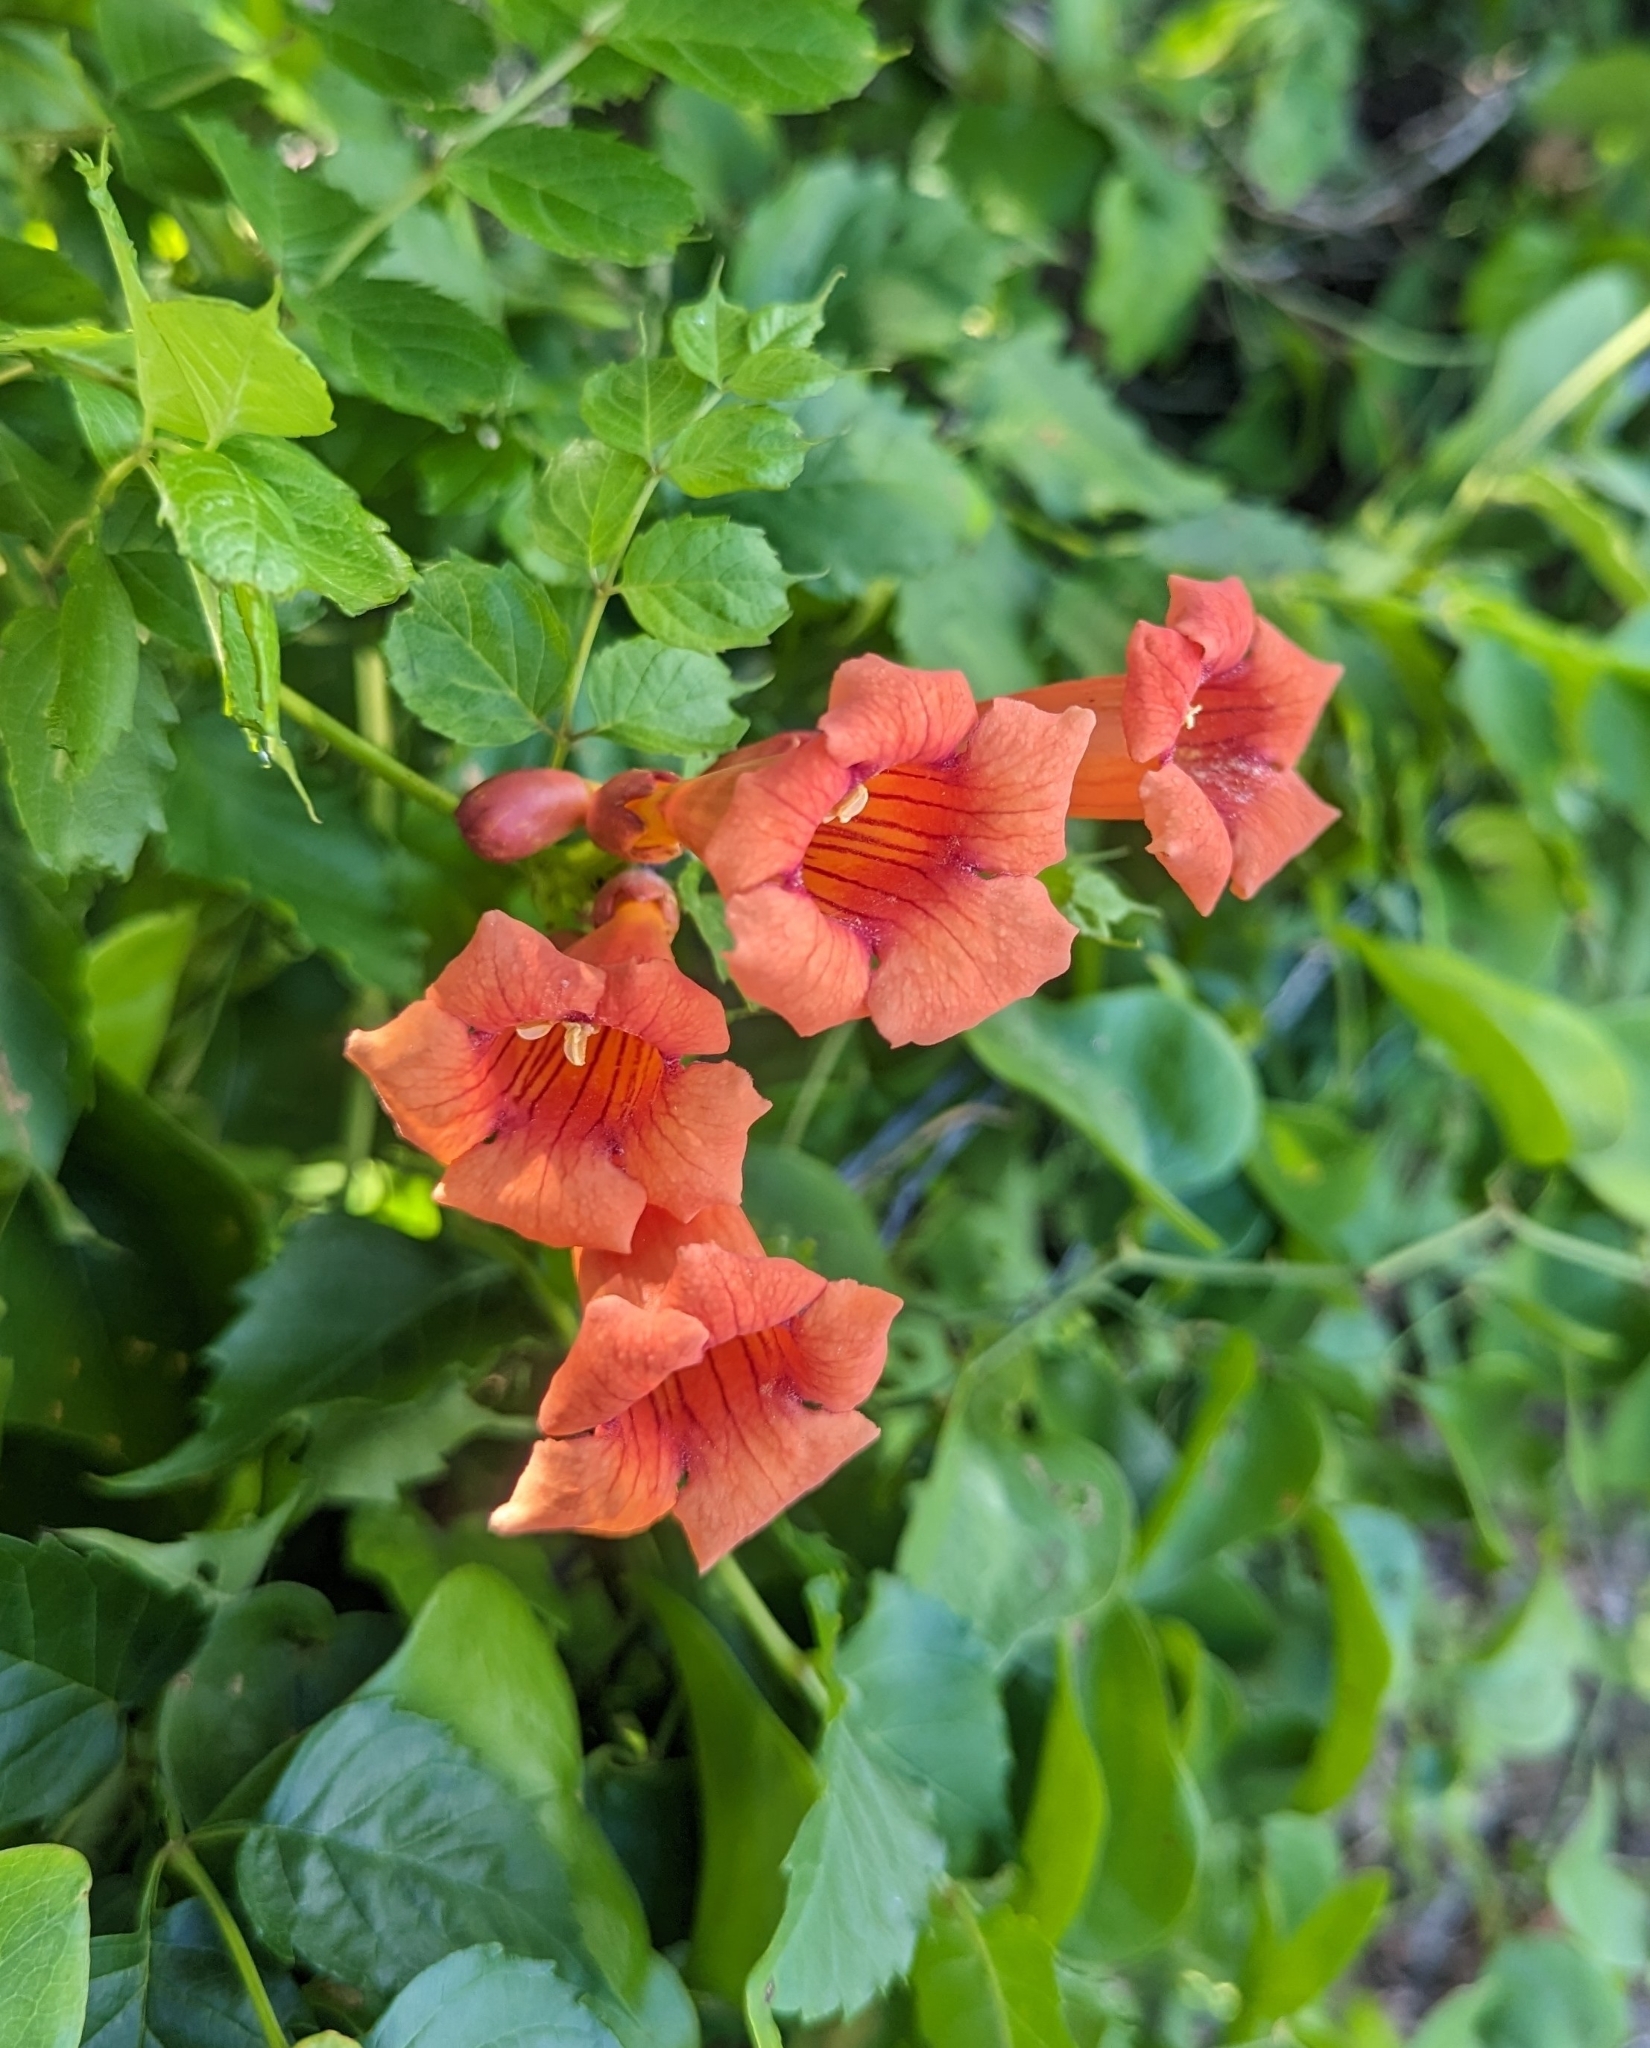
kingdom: Plantae
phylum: Tracheophyta
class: Magnoliopsida
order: Lamiales
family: Bignoniaceae
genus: Campsis
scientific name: Campsis radicans
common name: Trumpet-creeper
